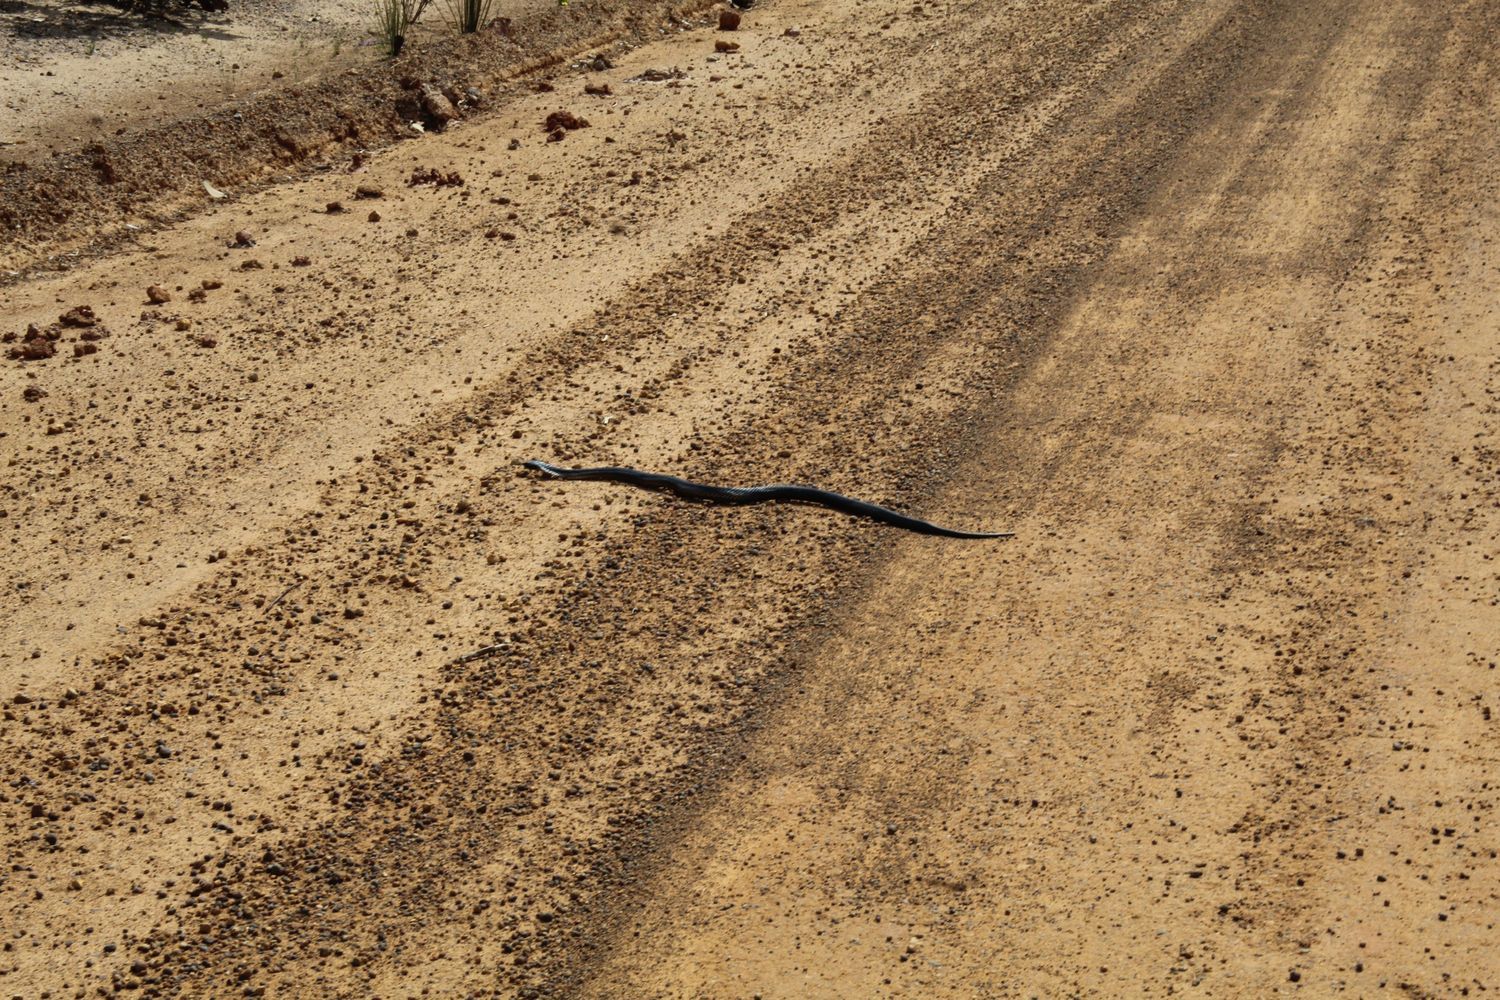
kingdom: Animalia
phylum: Chordata
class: Squamata
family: Elapidae
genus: Notechis
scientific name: Notechis scutatus
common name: Mainland tiger snake
